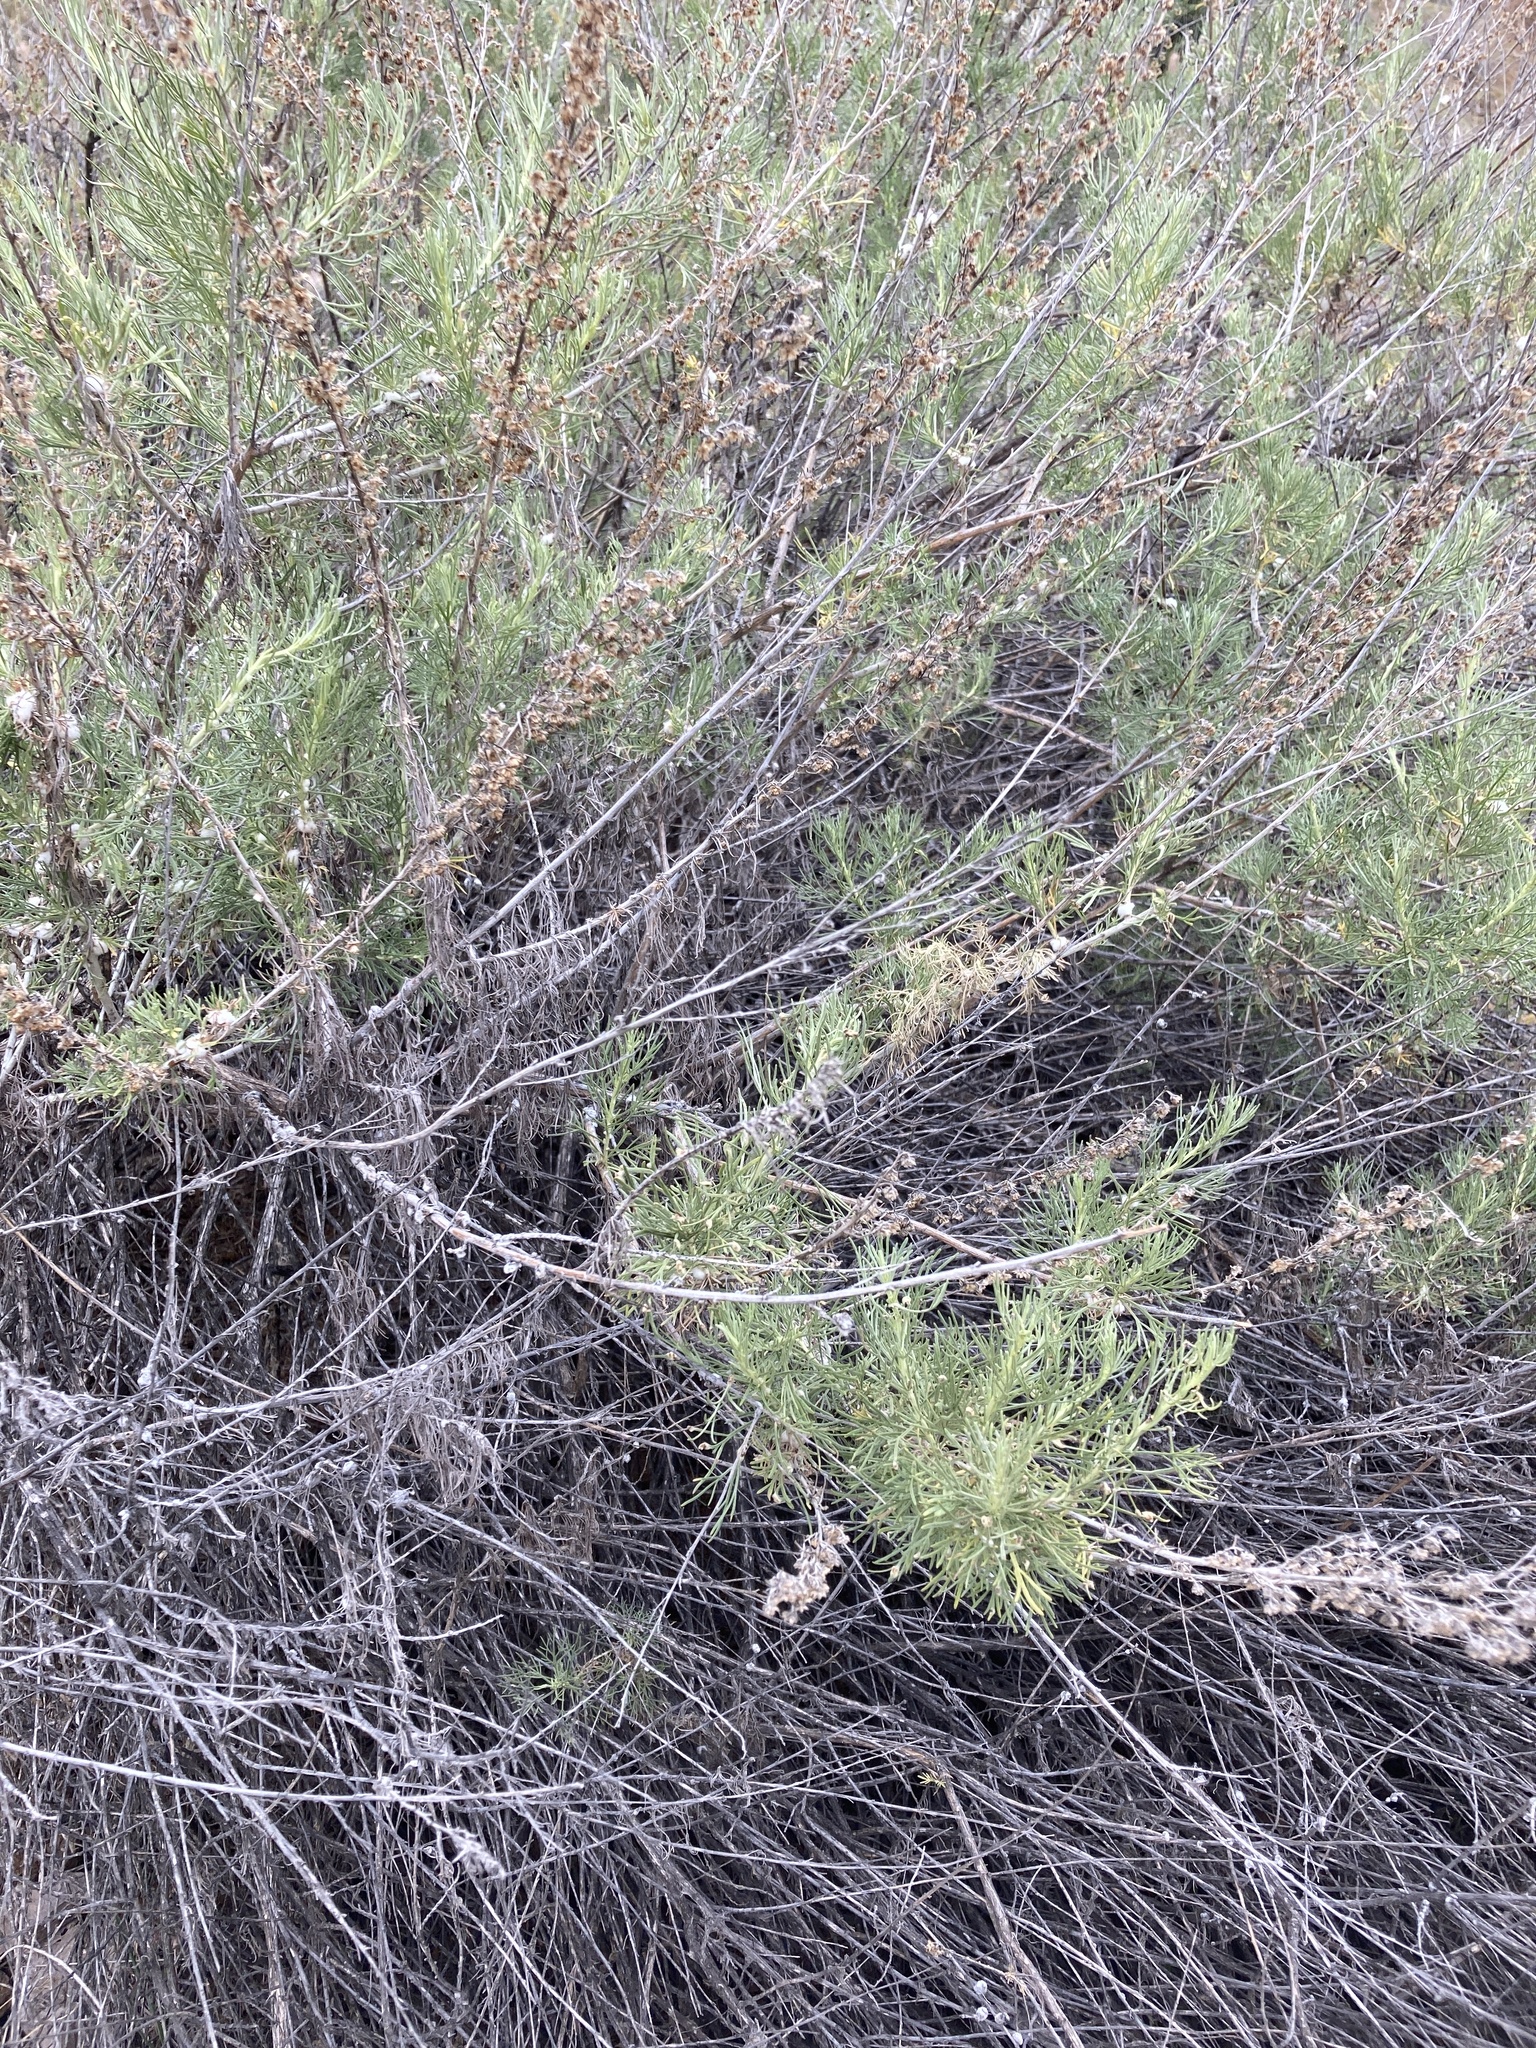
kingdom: Plantae
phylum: Tracheophyta
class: Magnoliopsida
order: Asterales
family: Asteraceae
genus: Artemisia
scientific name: Artemisia californica
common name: California sagebrush
